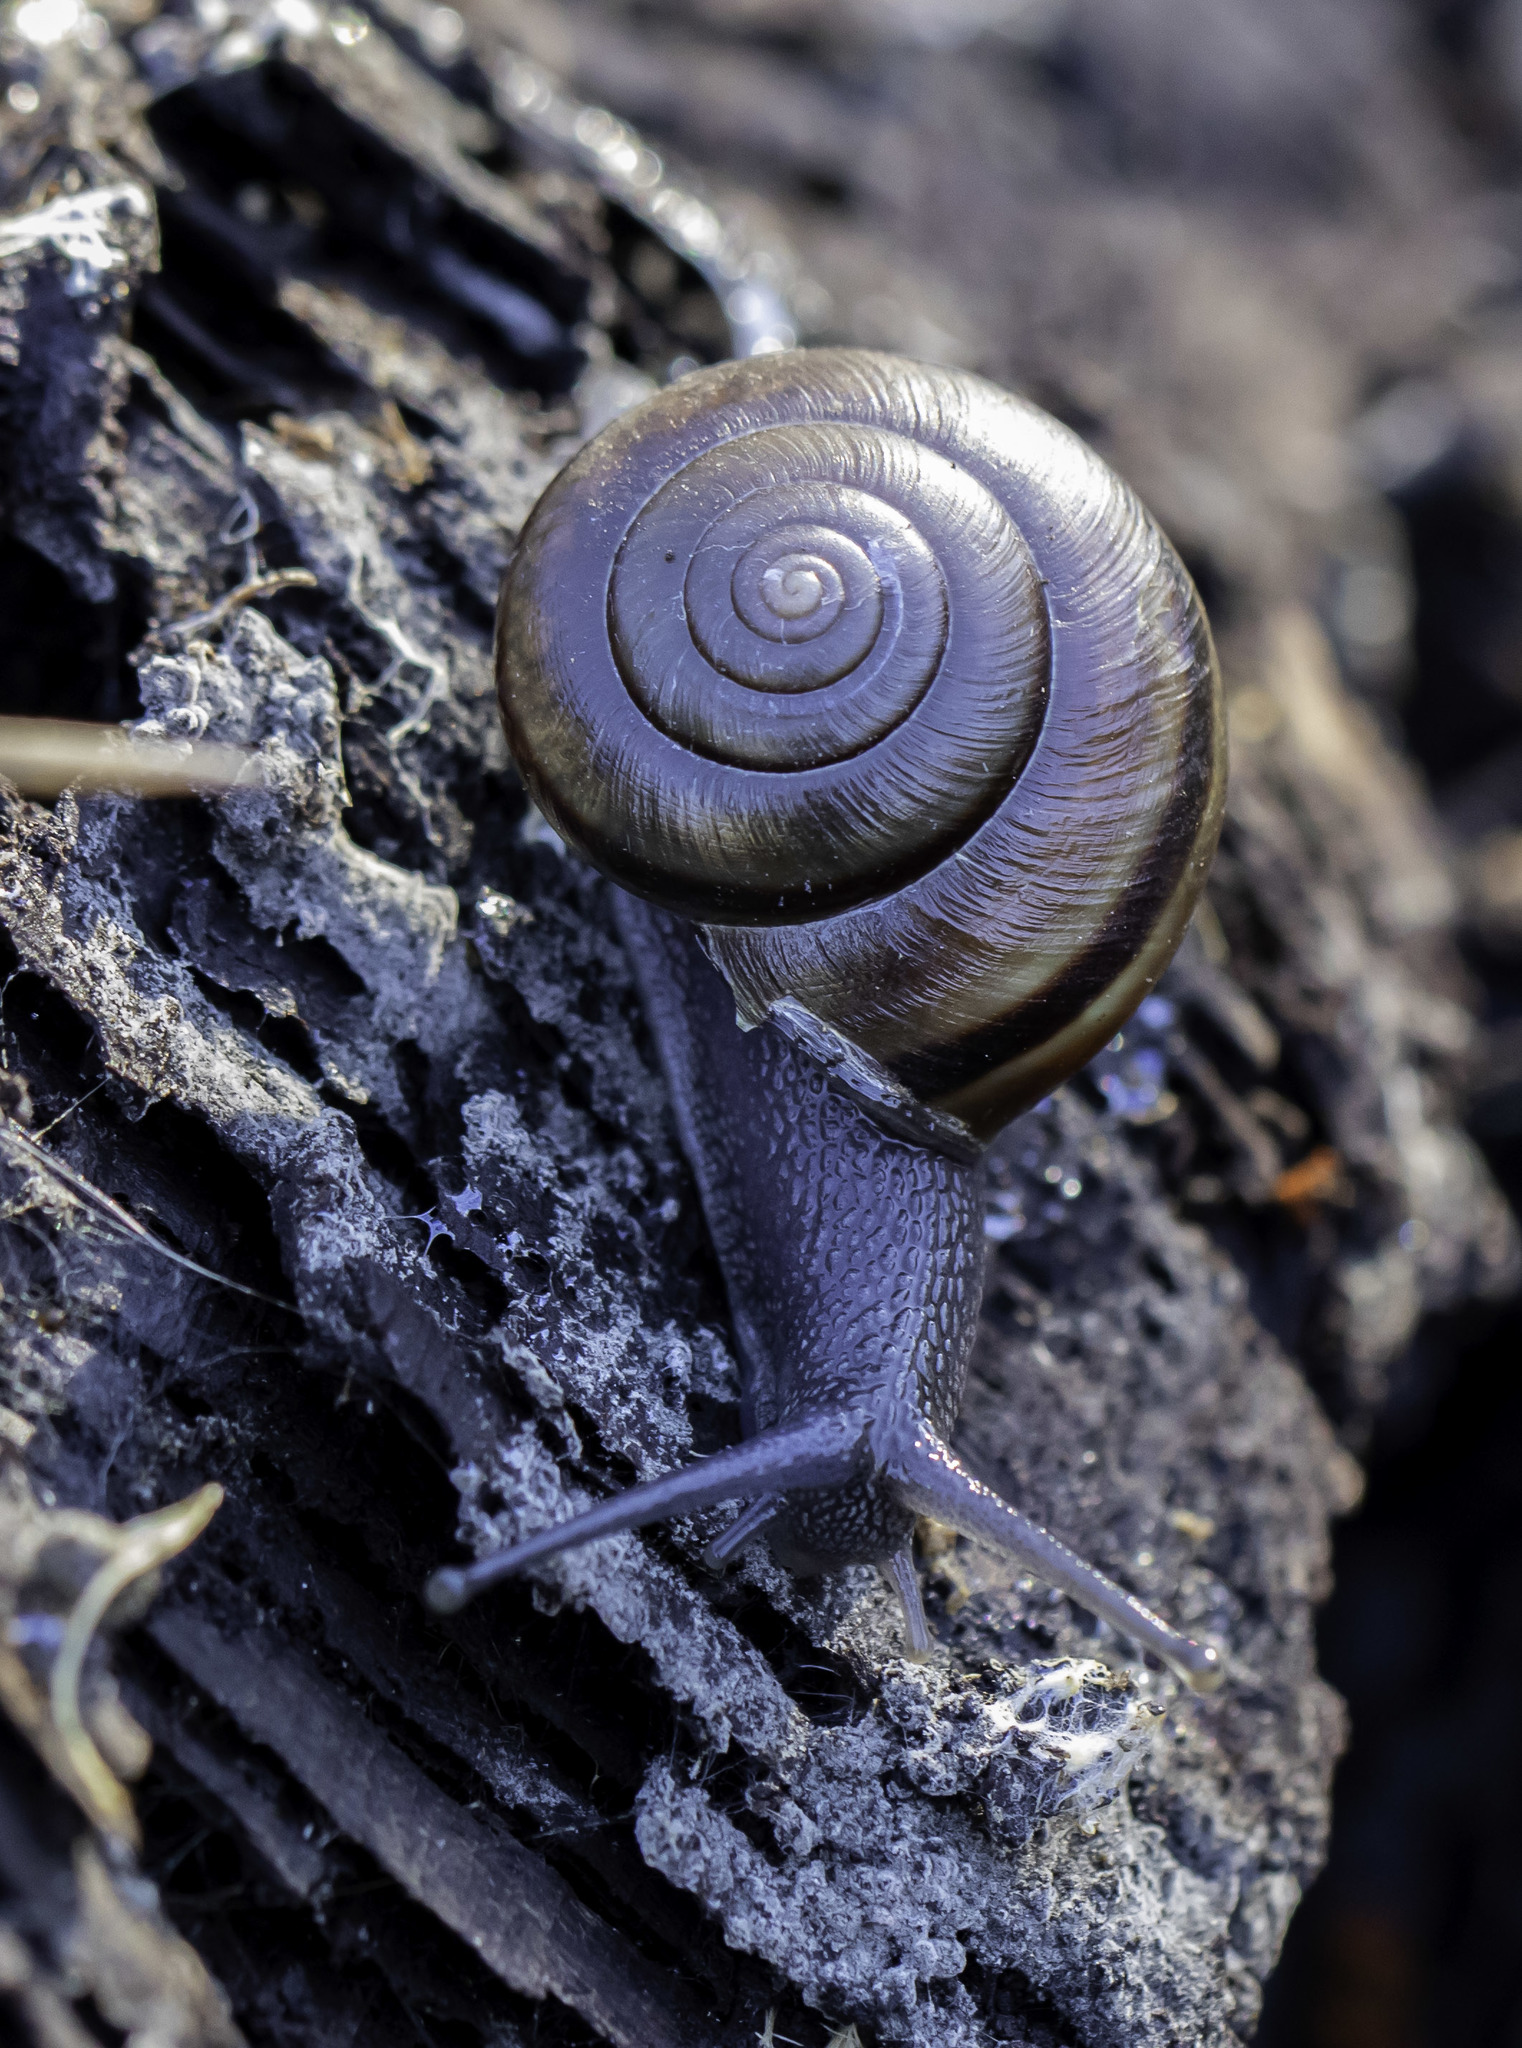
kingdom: Animalia
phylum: Mollusca
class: Gastropoda
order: Stylommatophora
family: Xanthonychidae
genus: Helminthoglypta
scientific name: Helminthoglypta traskii
